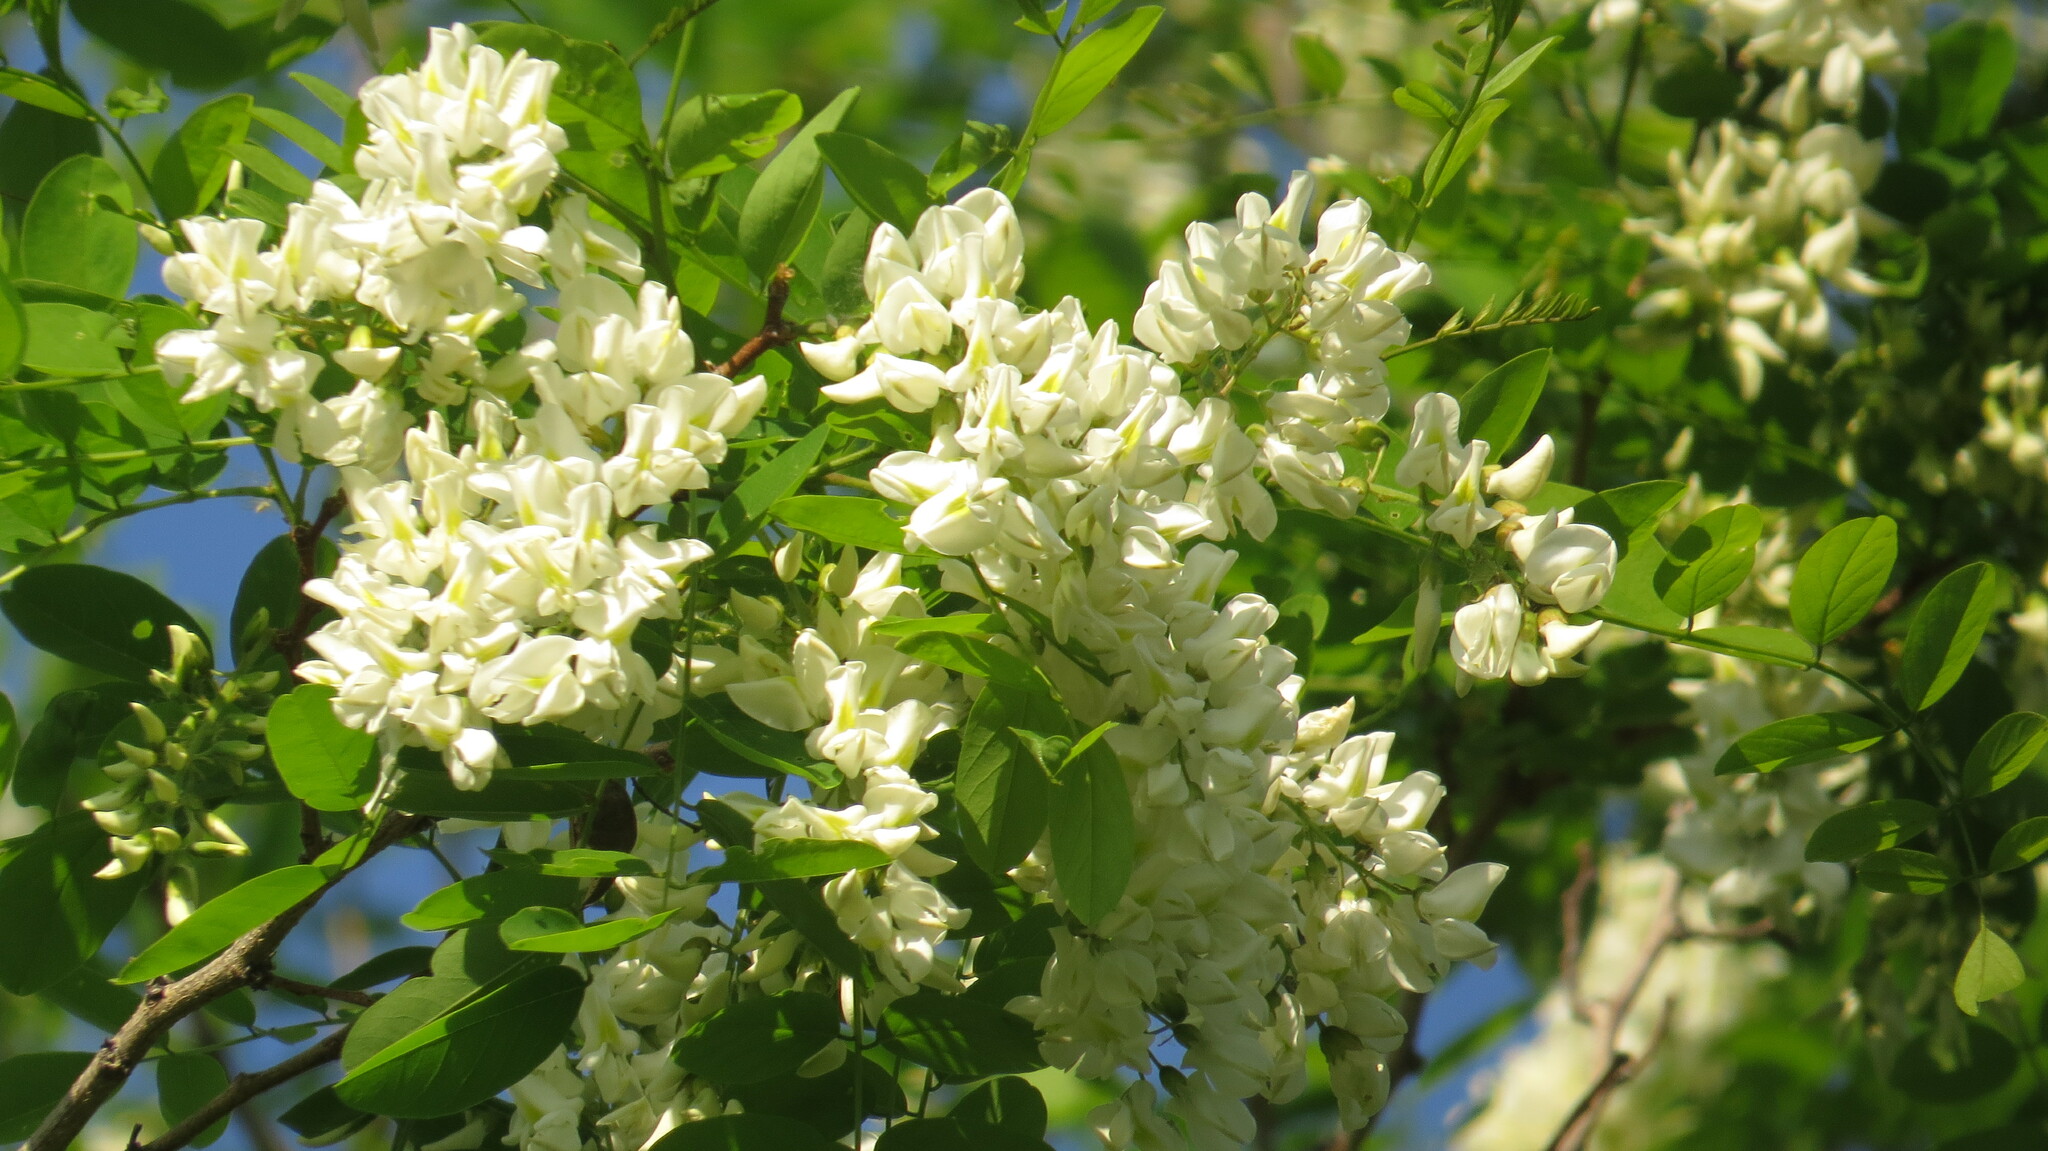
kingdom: Plantae
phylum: Tracheophyta
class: Magnoliopsida
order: Fabales
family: Fabaceae
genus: Robinia
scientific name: Robinia pseudoacacia
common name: Black locust
